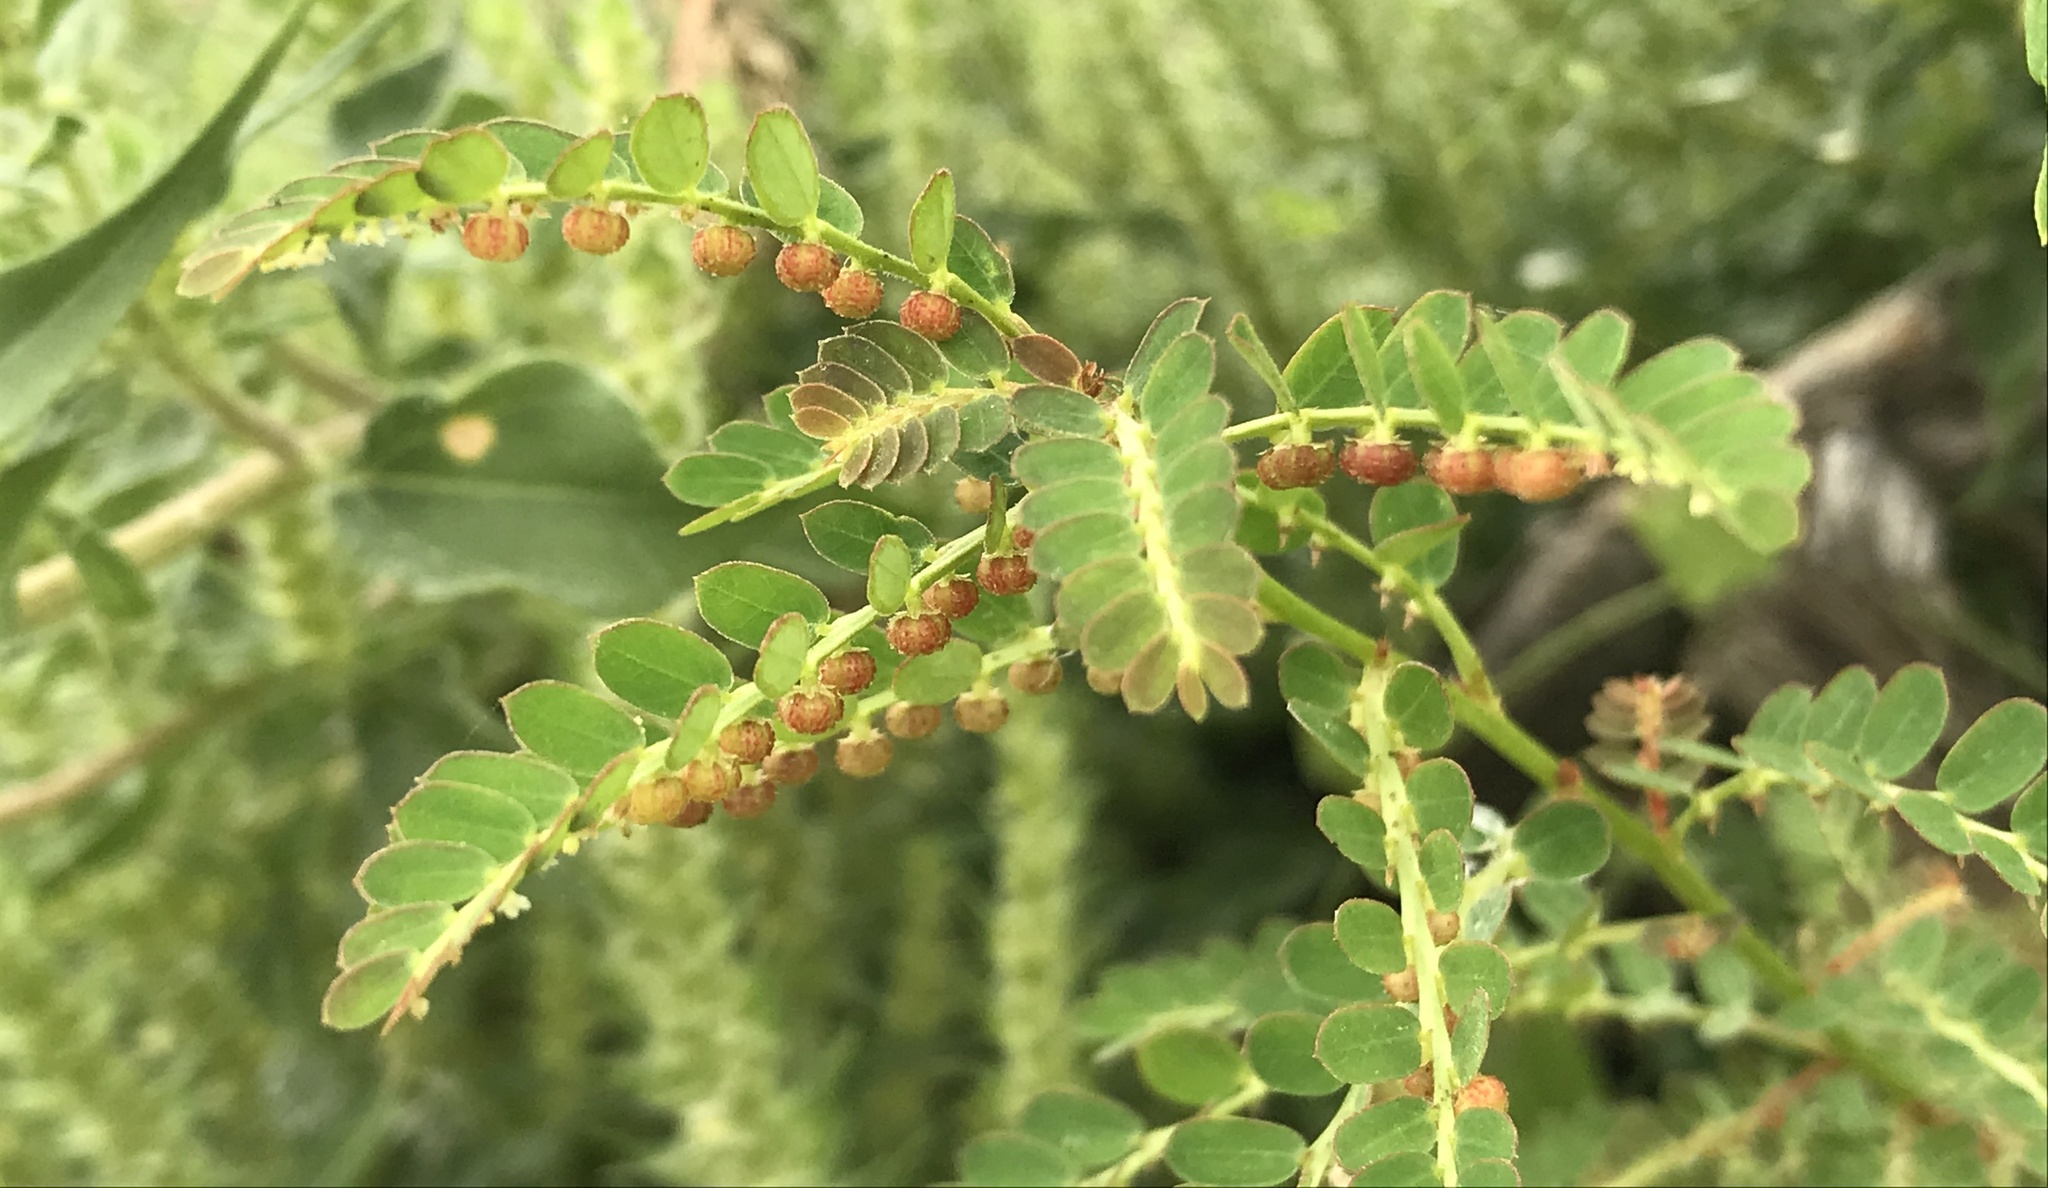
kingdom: Plantae
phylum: Tracheophyta
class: Magnoliopsida
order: Malpighiales
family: Phyllanthaceae
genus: Phyllanthus
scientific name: Phyllanthus urinaria
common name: Chamber bitter
